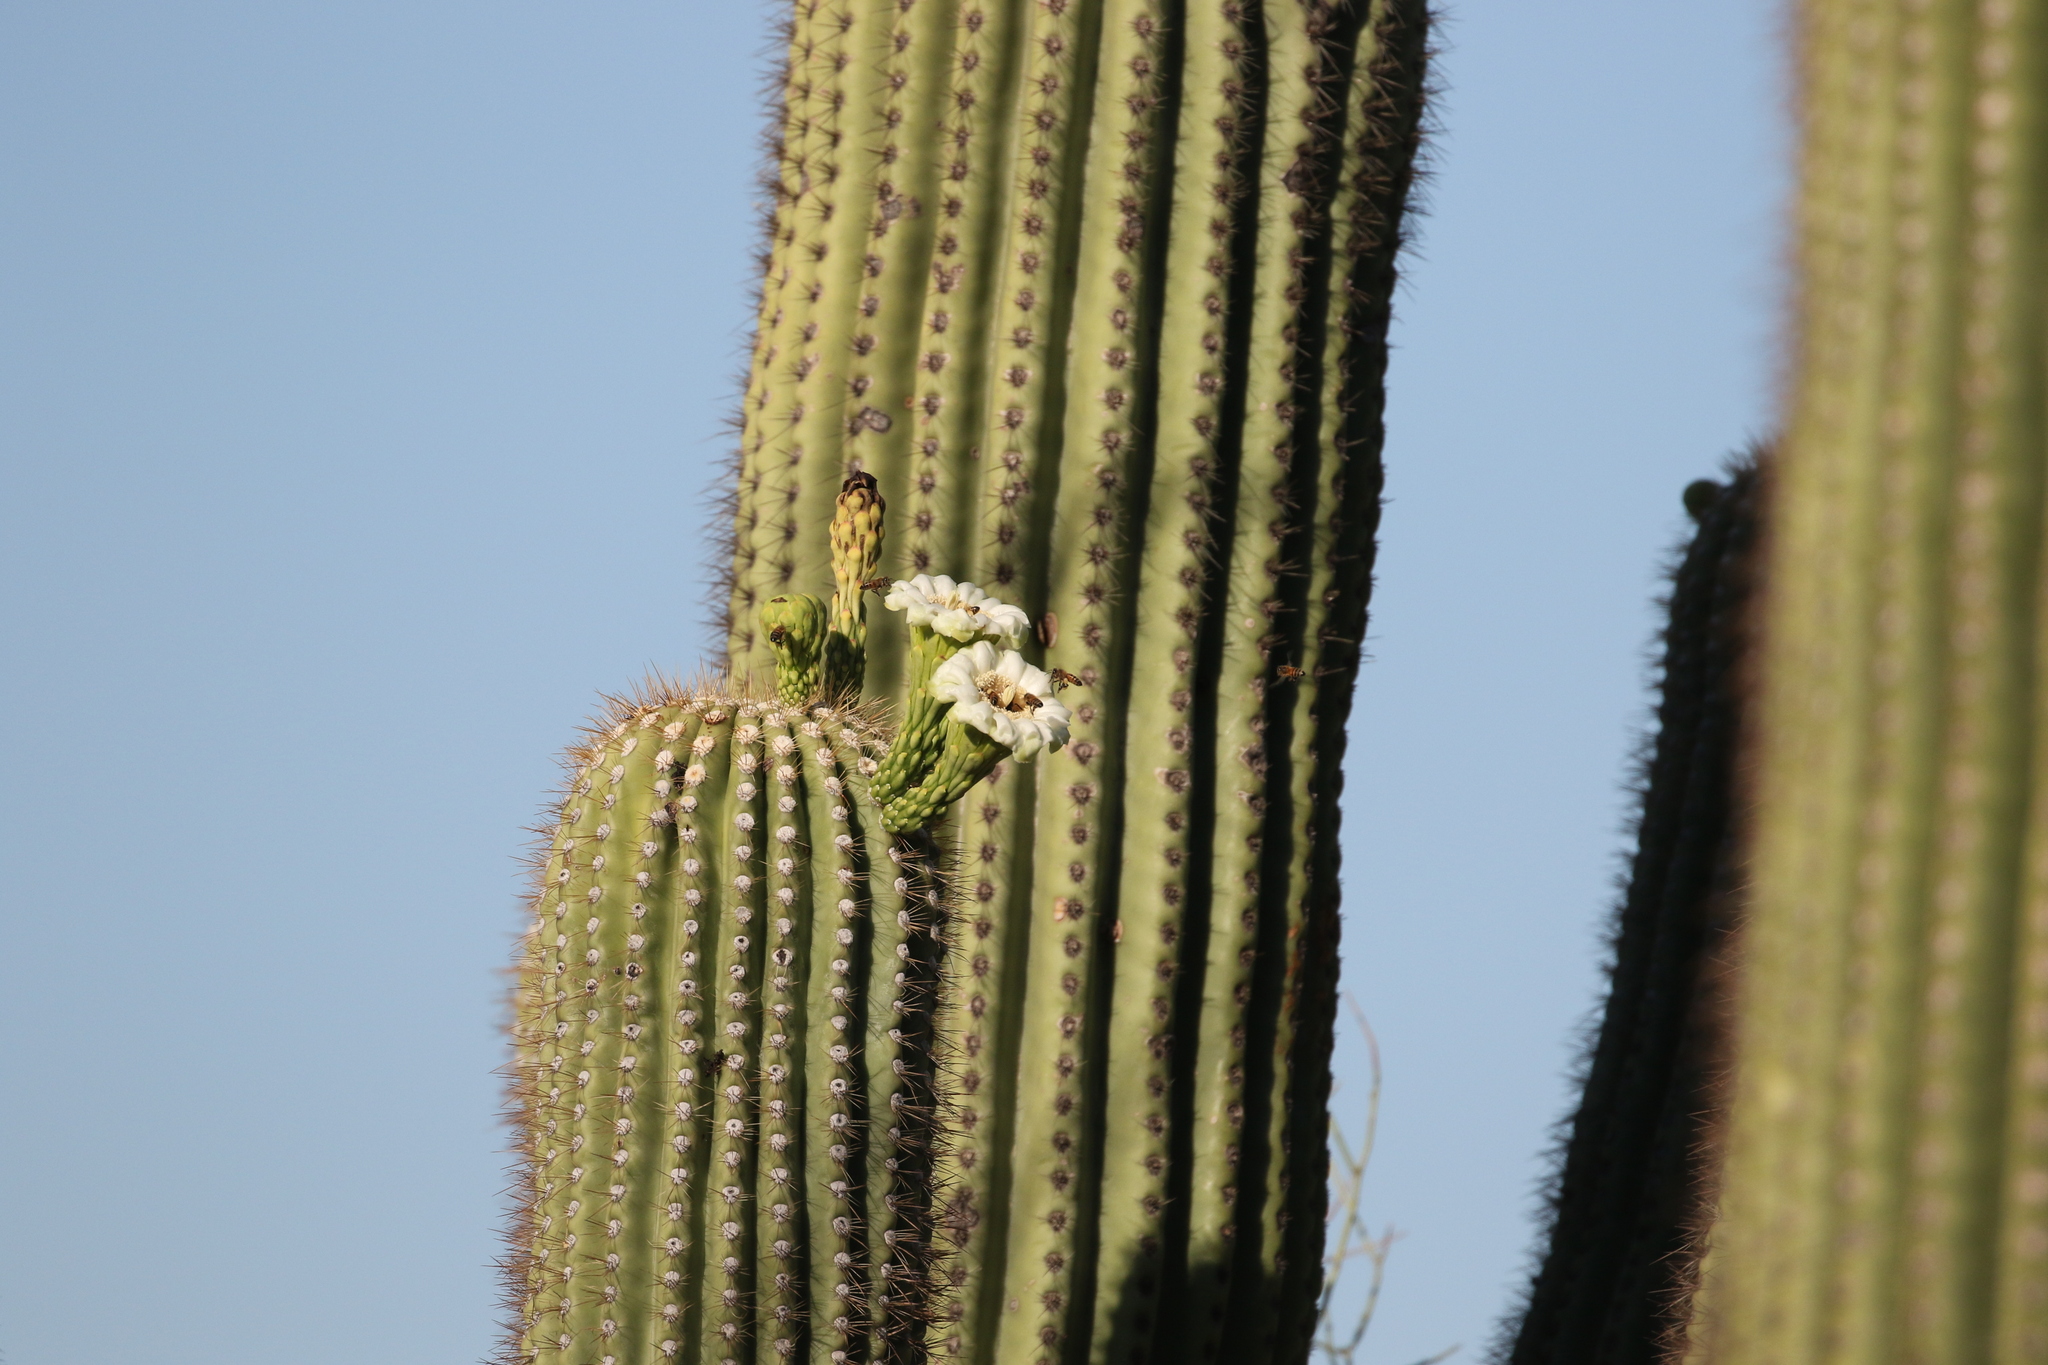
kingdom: Plantae
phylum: Tracheophyta
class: Magnoliopsida
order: Caryophyllales
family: Cactaceae
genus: Carnegiea
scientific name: Carnegiea gigantea
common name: Saguaro
